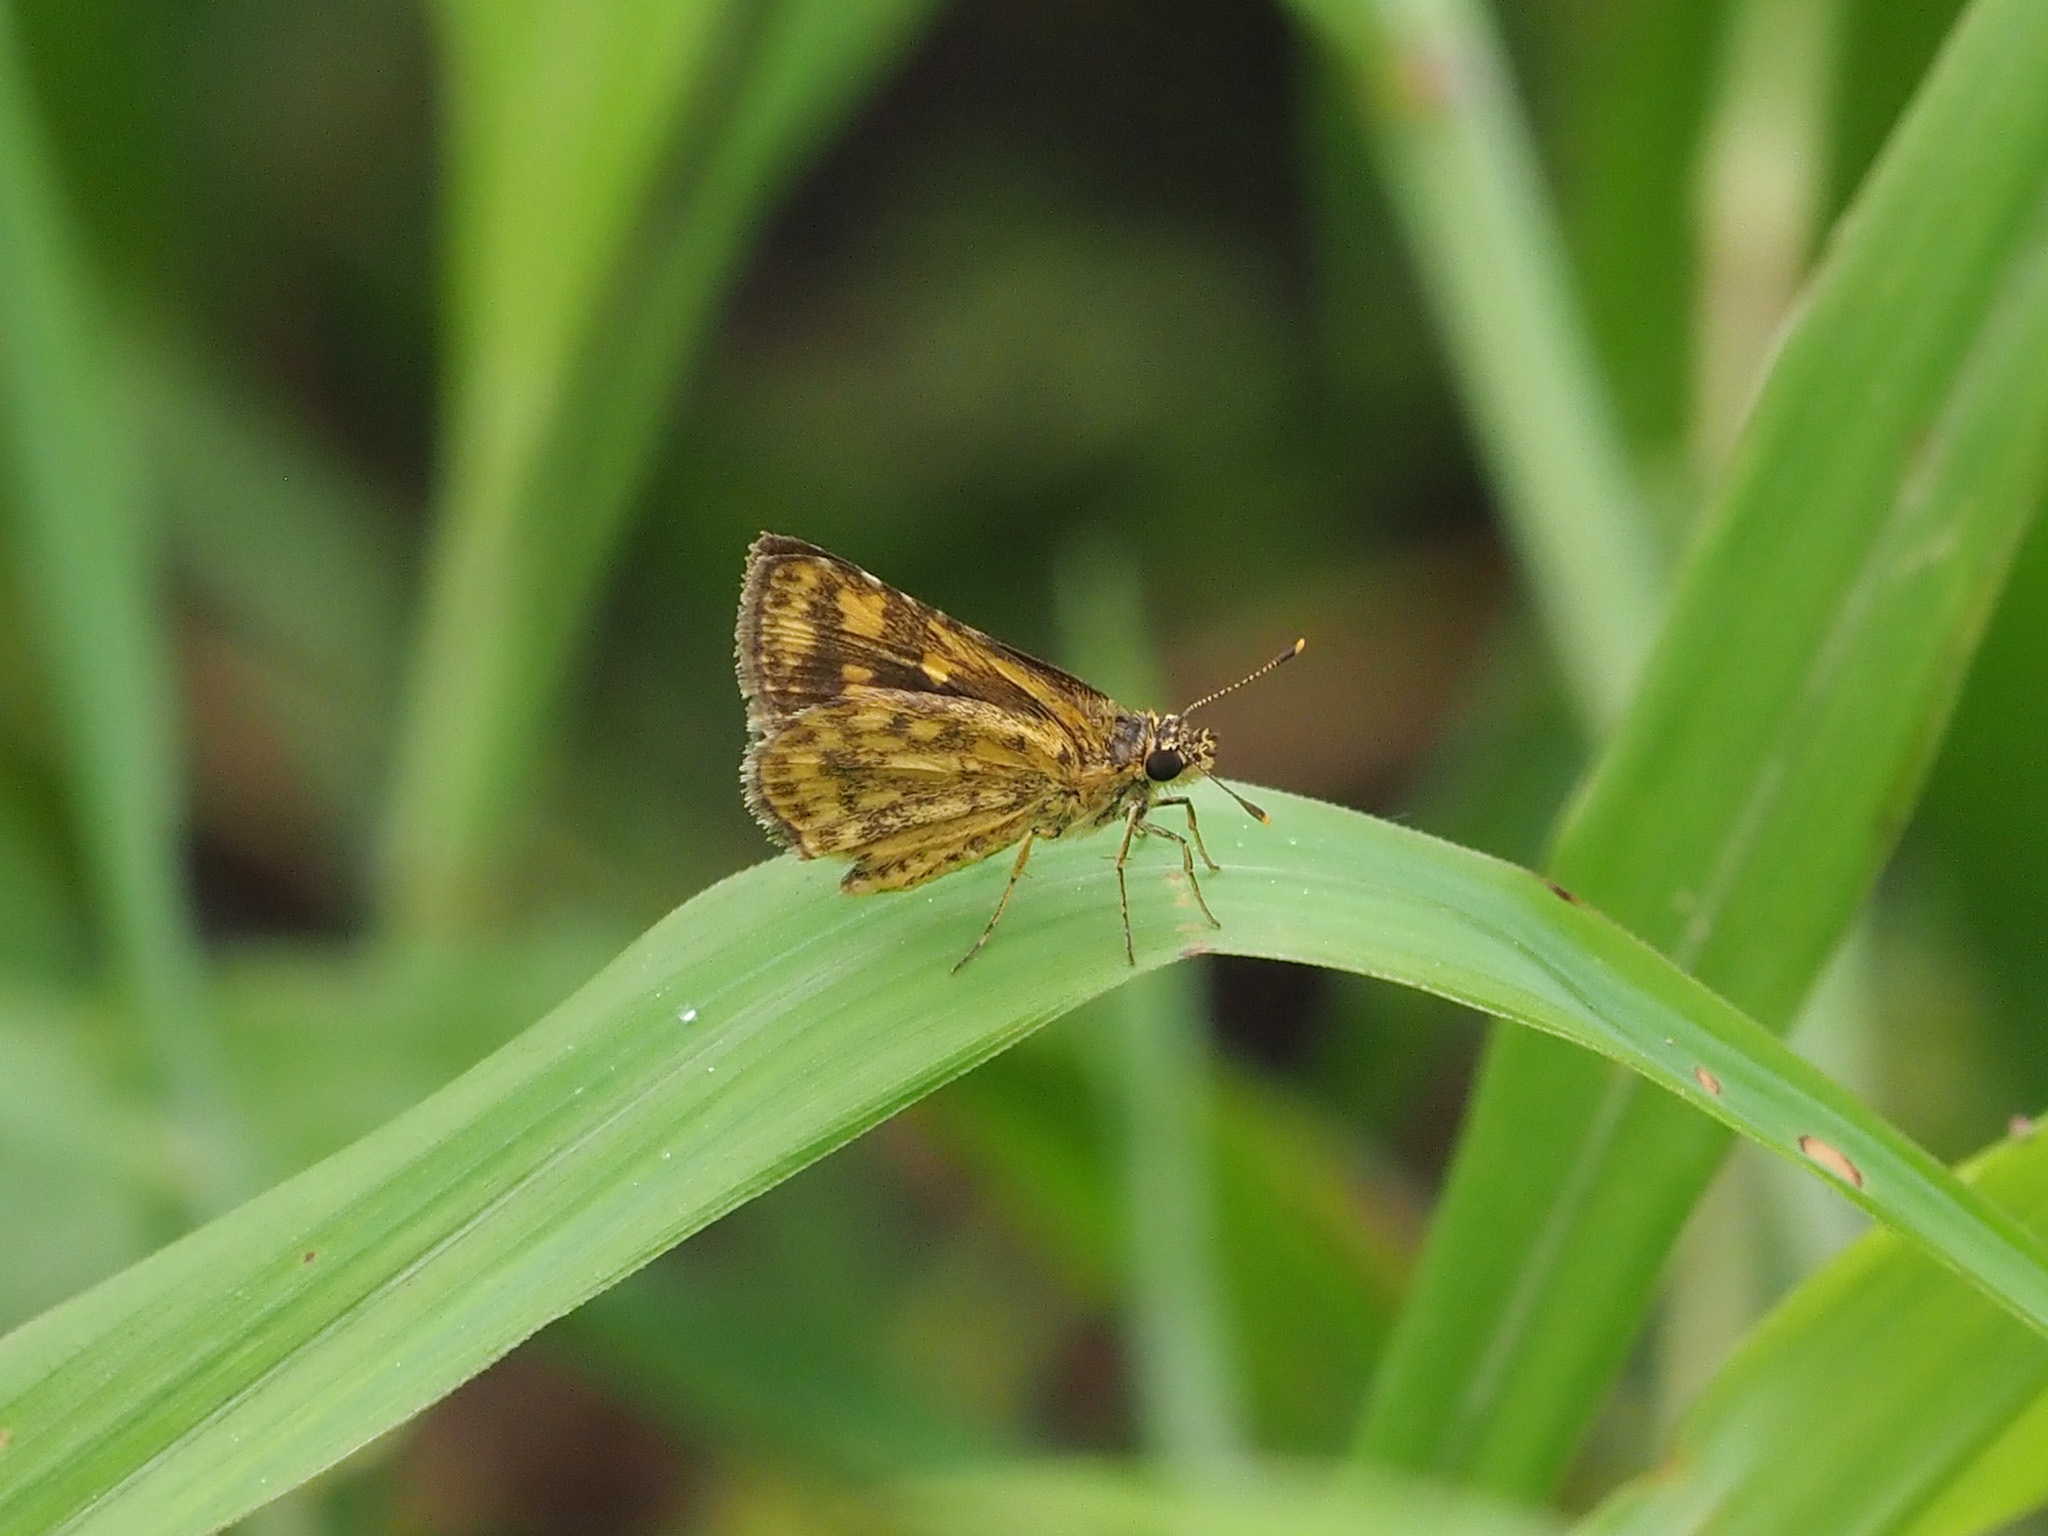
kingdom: Animalia
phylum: Arthropoda
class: Insecta
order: Lepidoptera
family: Hesperiidae
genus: Ampittia
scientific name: Ampittia dioscorides
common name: Common bush hopper
